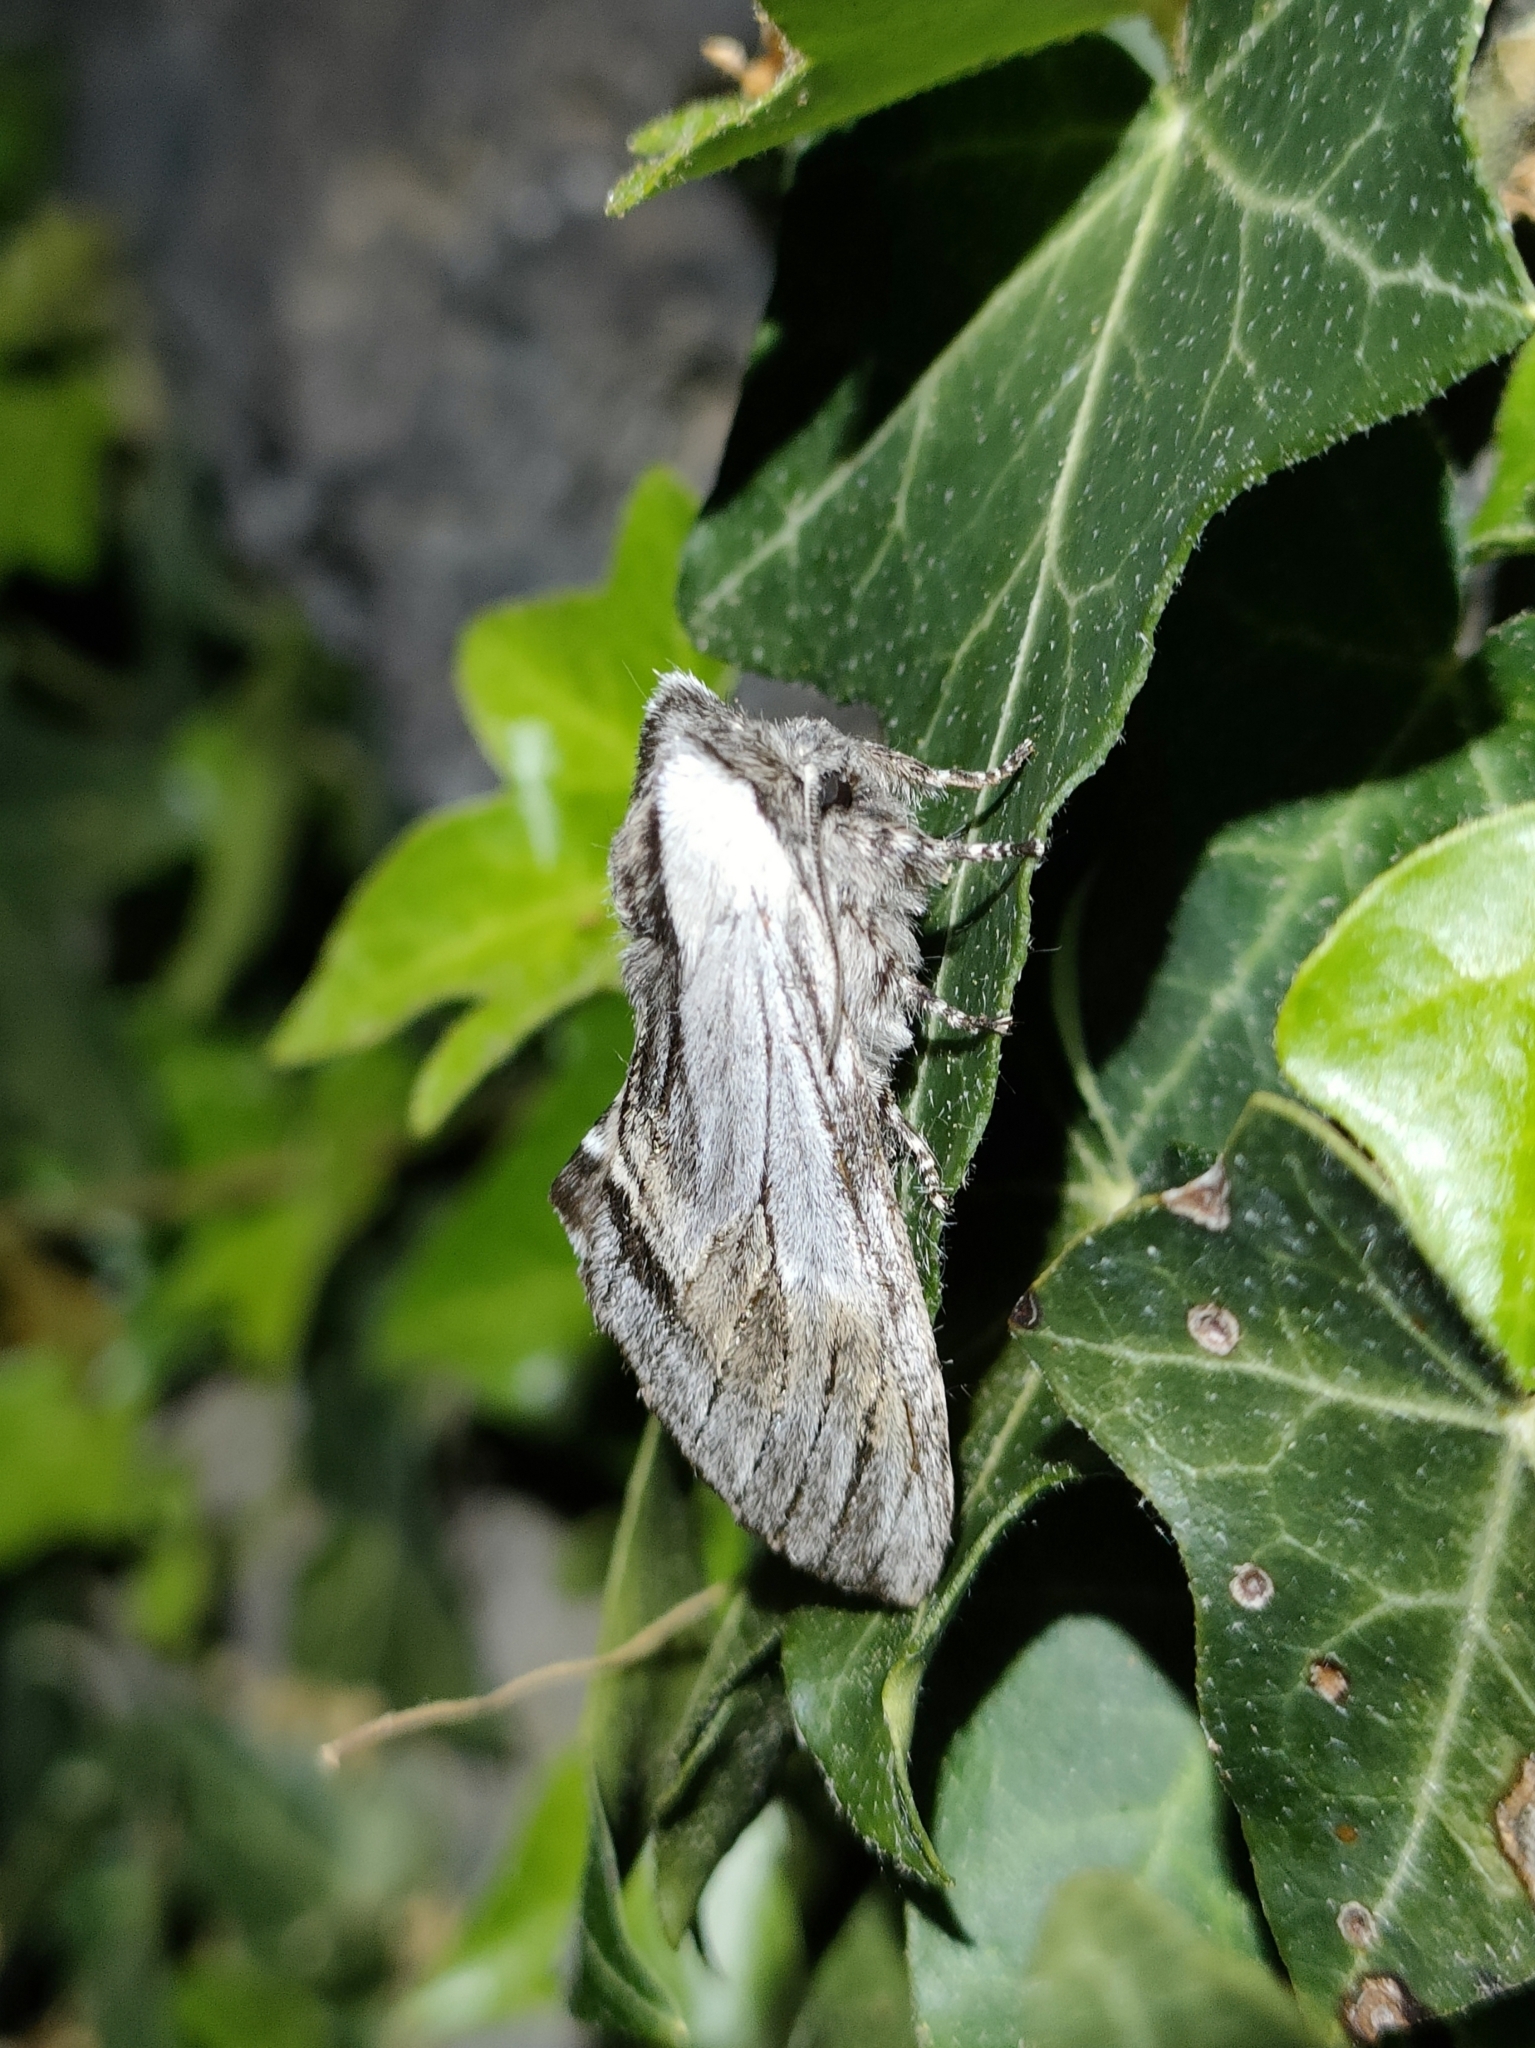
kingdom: Animalia
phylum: Arthropoda
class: Insecta
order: Lepidoptera
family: Notodontidae
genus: Harpyia
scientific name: Harpyia milhauseri
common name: Tawny prominent
